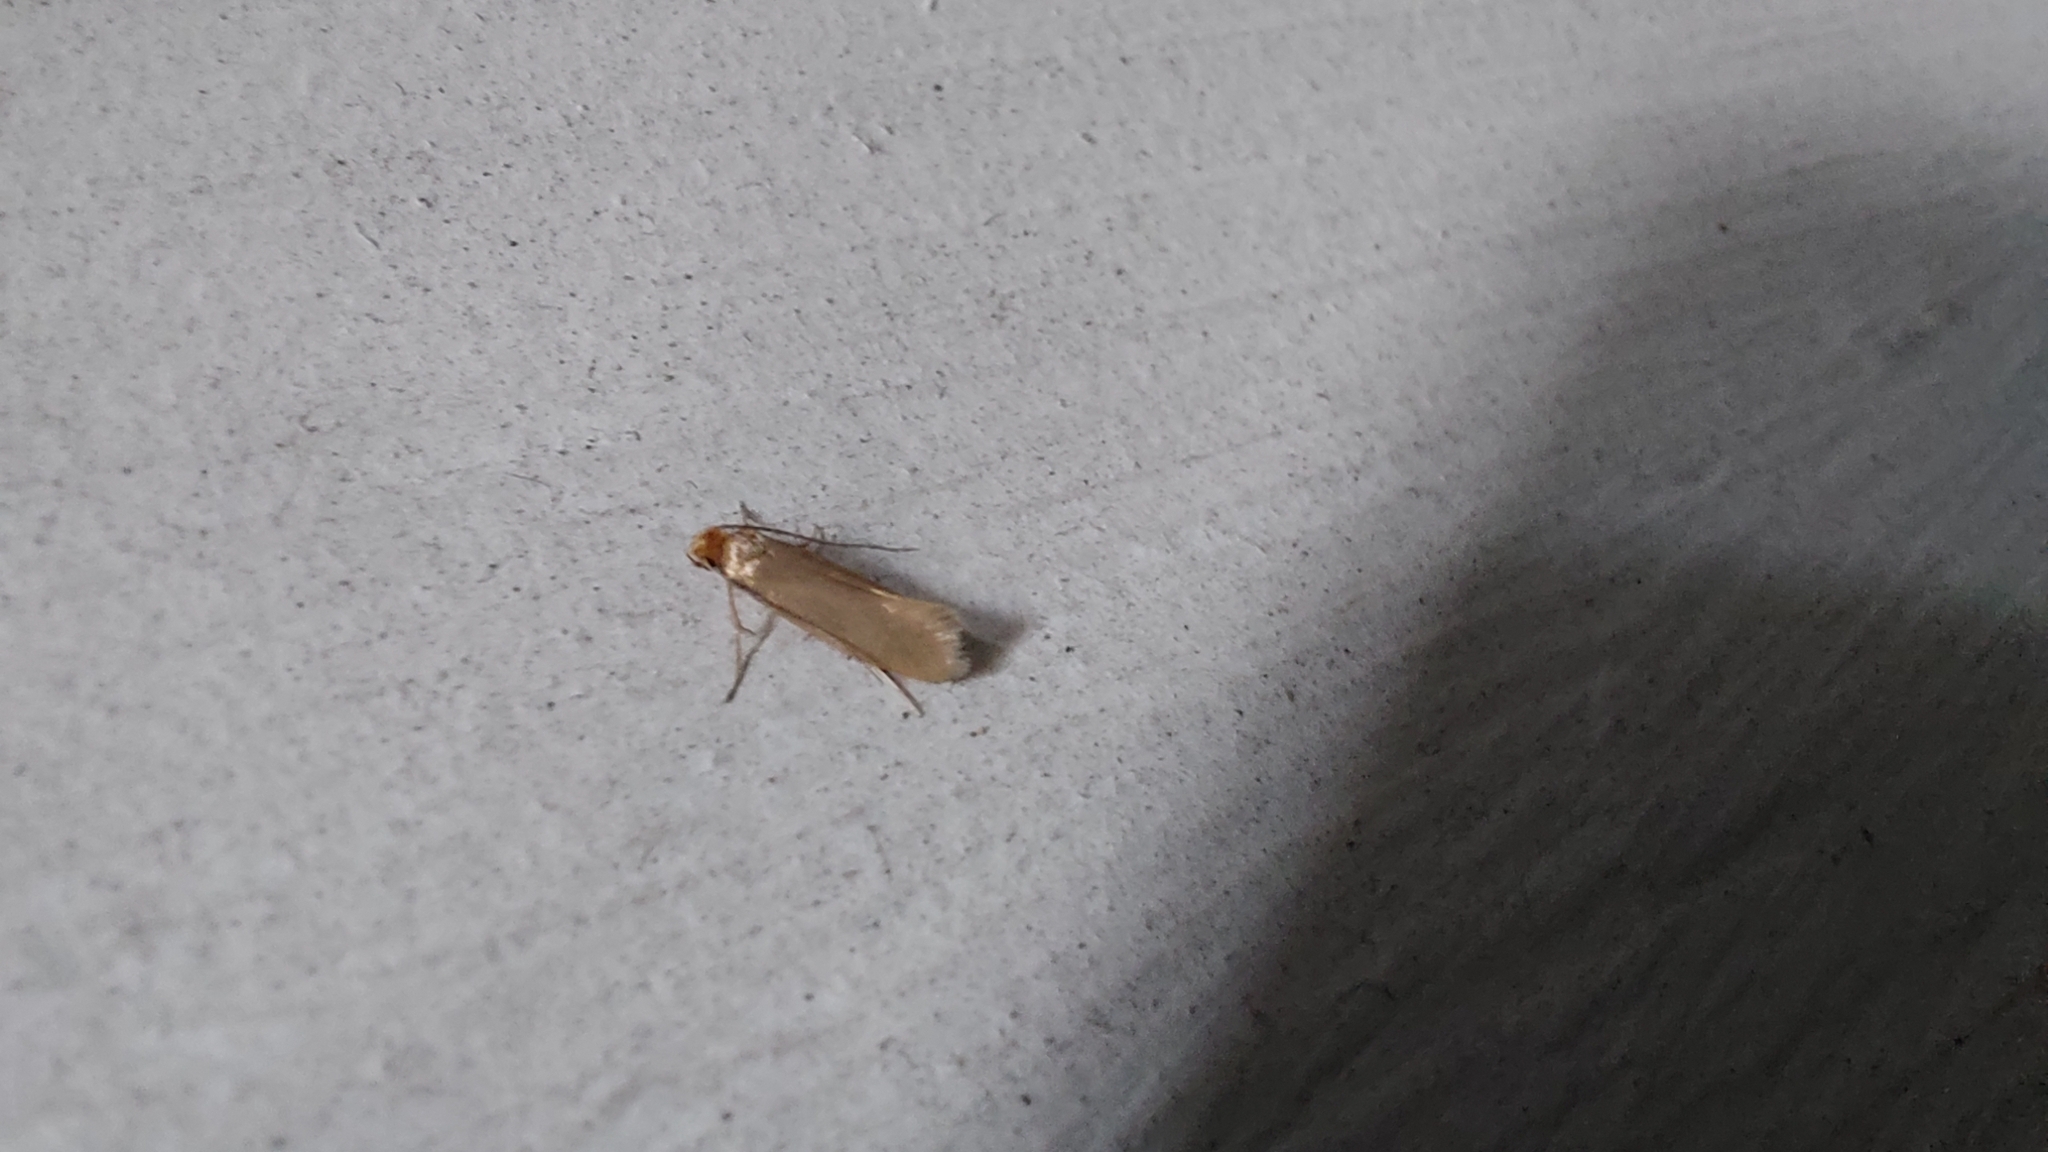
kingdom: Animalia
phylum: Arthropoda
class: Insecta
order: Lepidoptera
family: Tineidae
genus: Tineola
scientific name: Tineola bisselliella
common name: Webbing clothes moth
